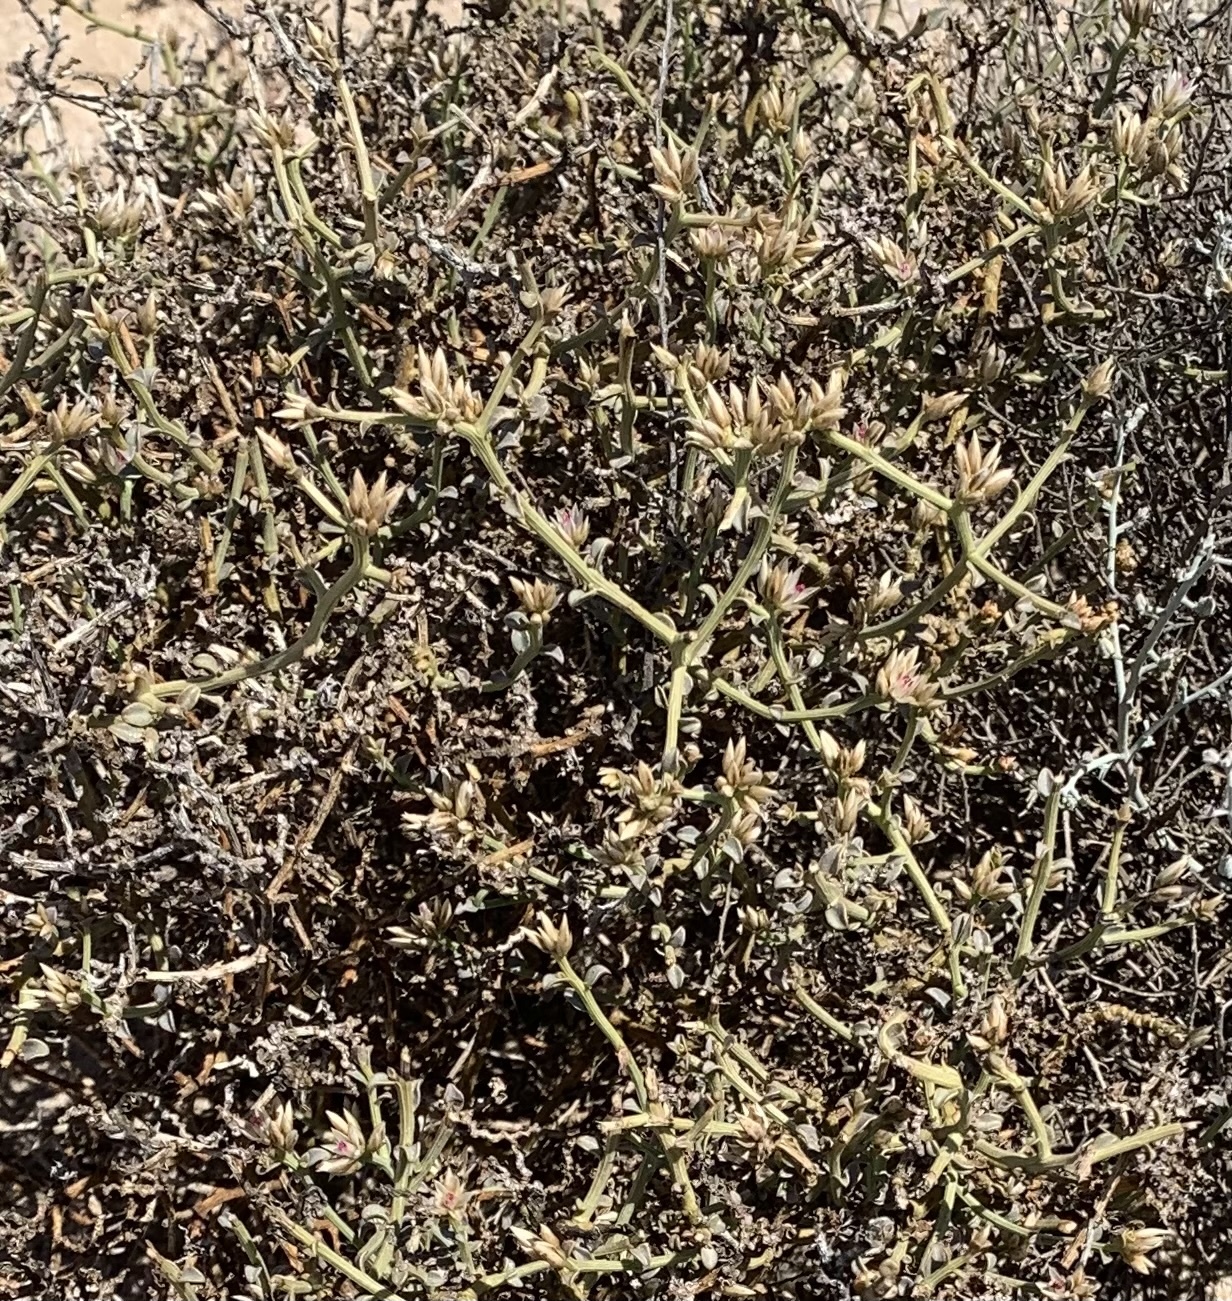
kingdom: Plantae
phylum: Tracheophyta
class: Magnoliopsida
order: Caryophyllales
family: Amaranthaceae
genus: Calicorema
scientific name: Calicorema capitata
